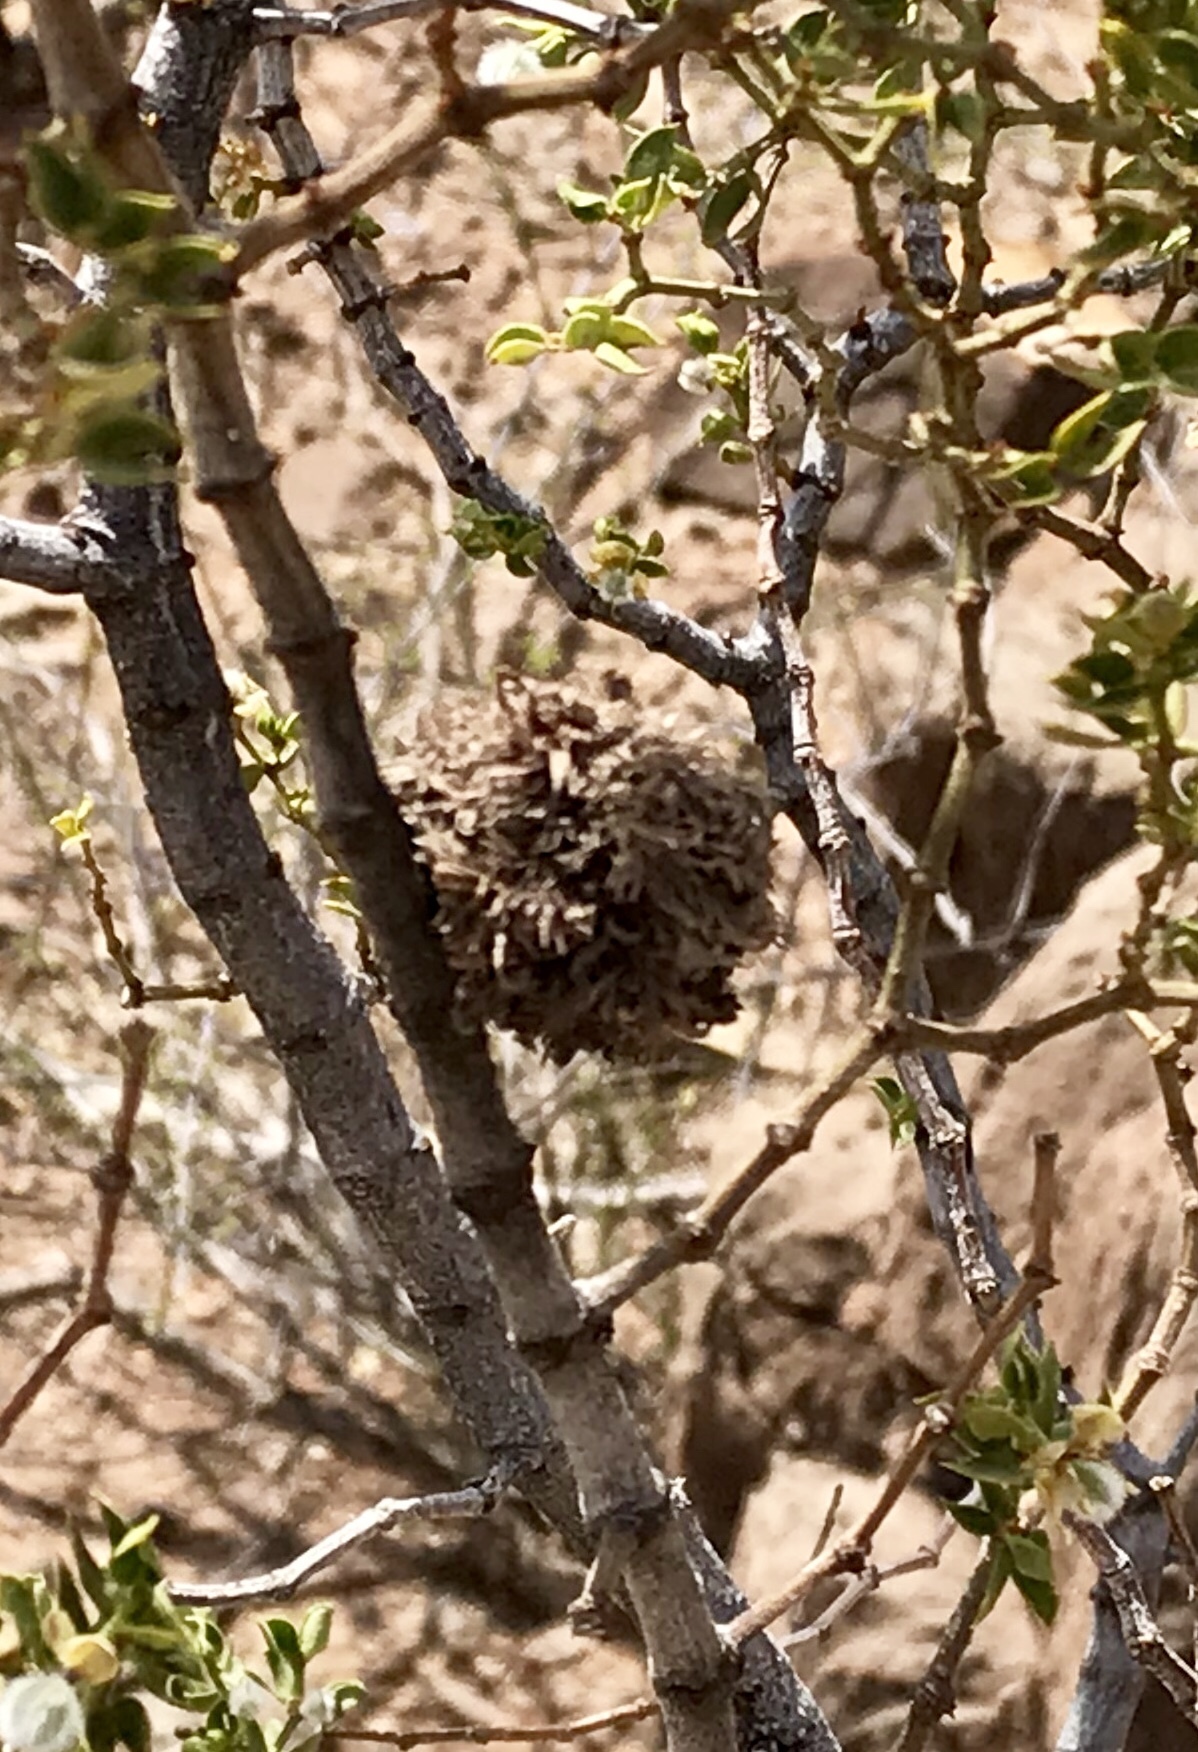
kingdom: Animalia
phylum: Arthropoda
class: Insecta
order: Diptera
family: Cecidomyiidae
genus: Asphondylia
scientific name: Asphondylia auripila
